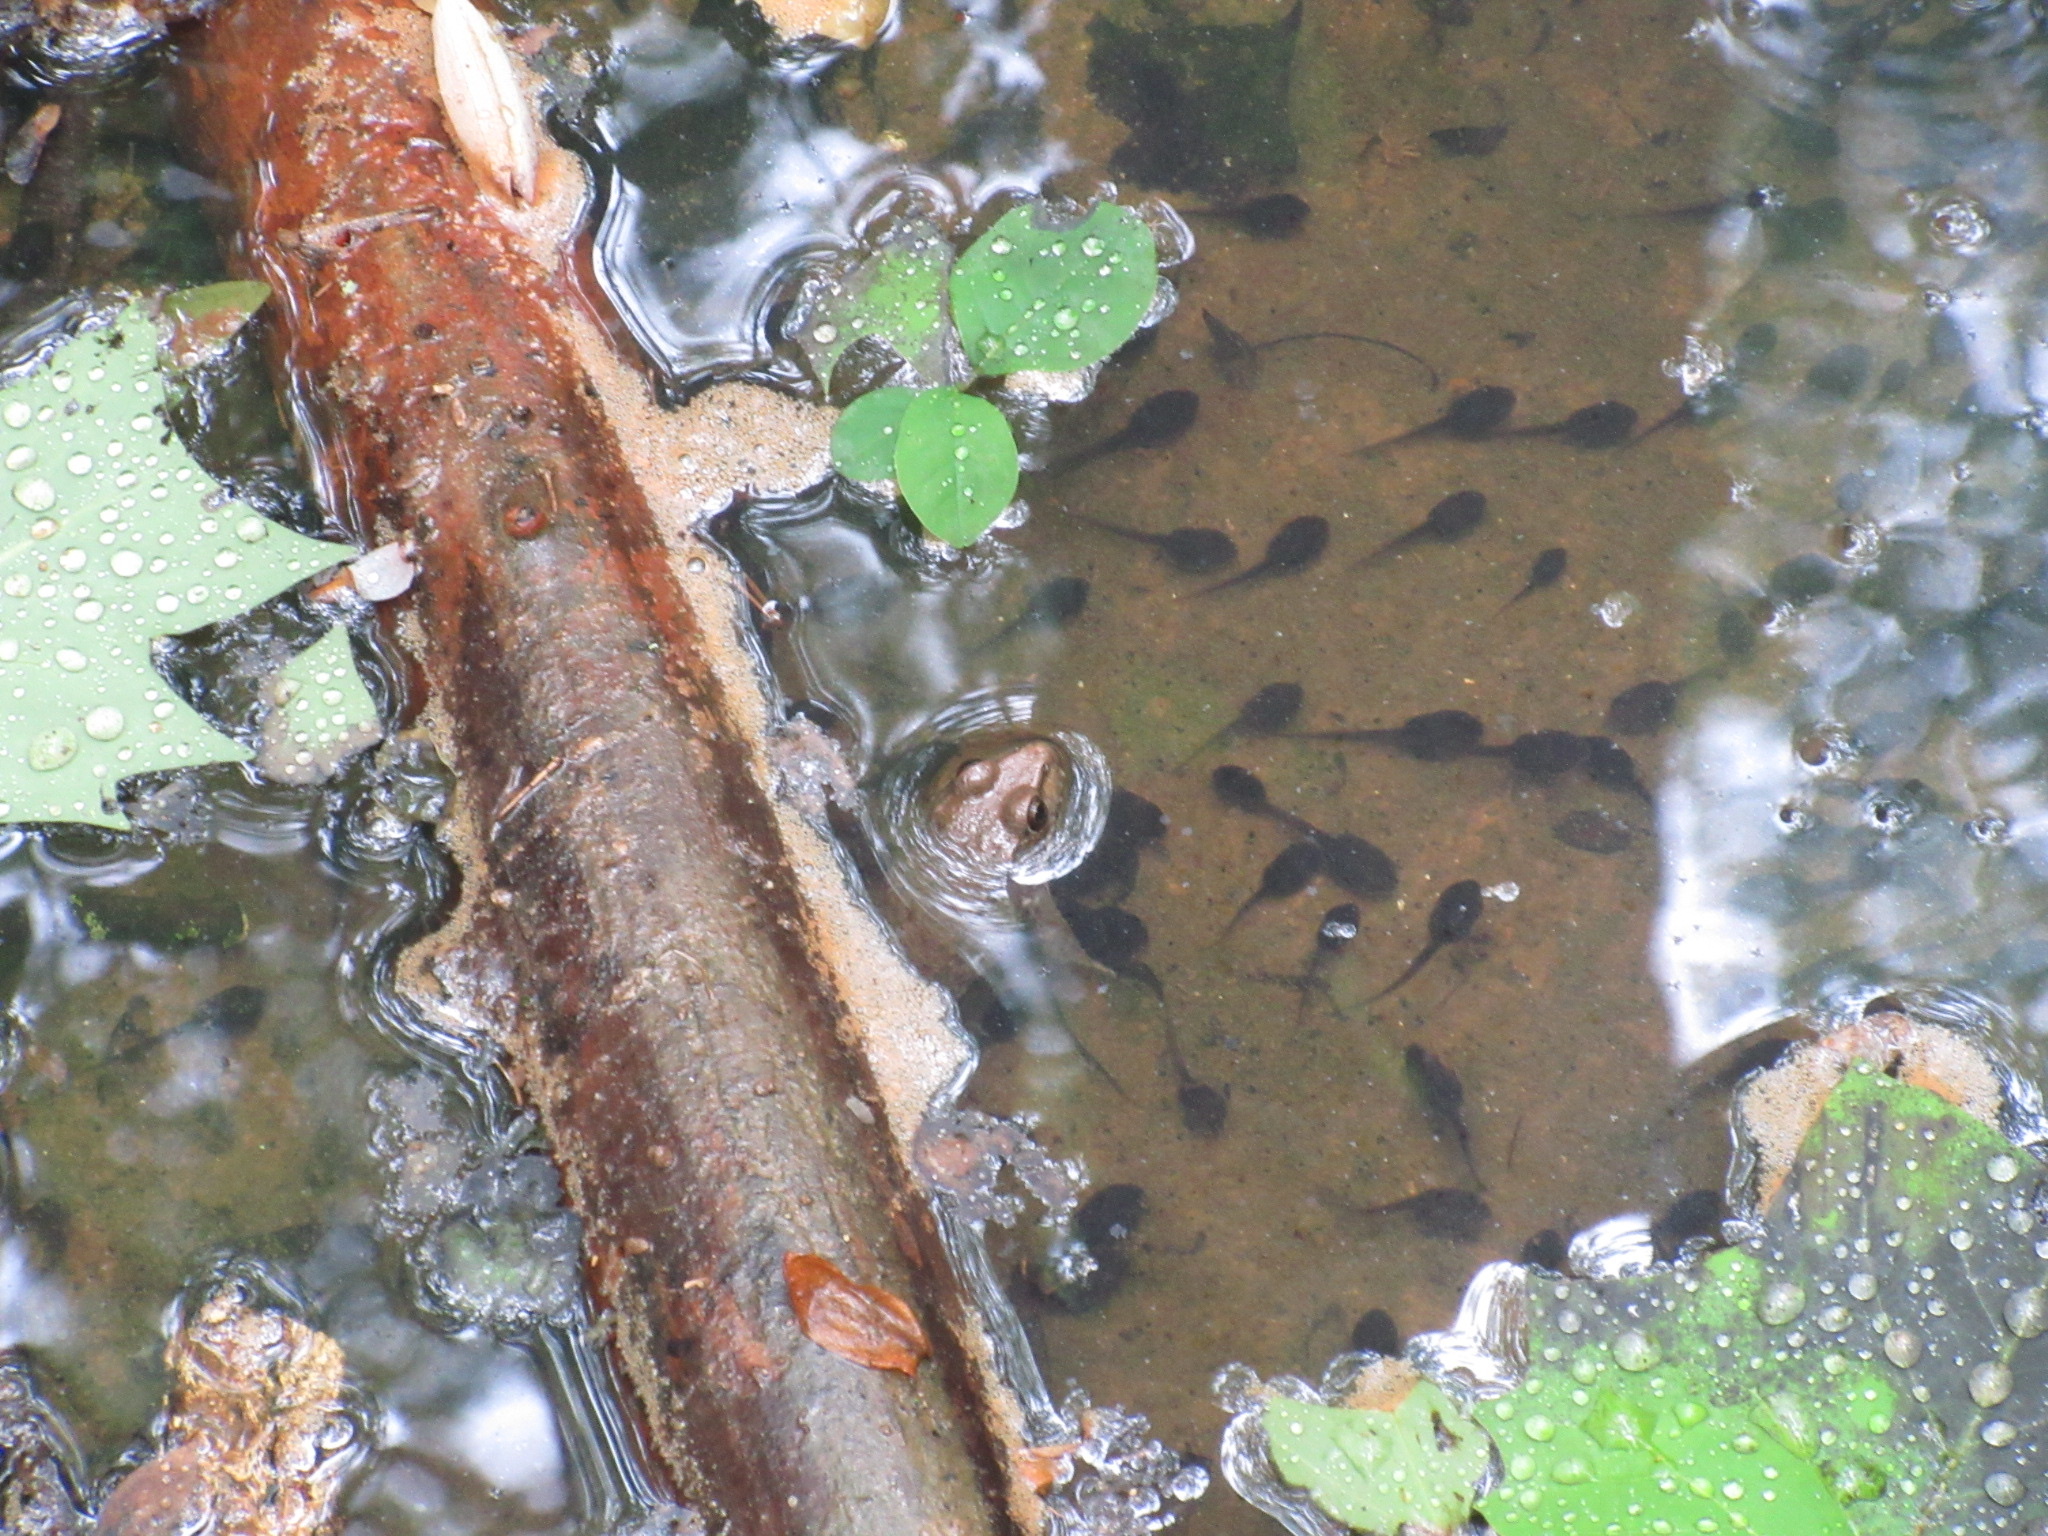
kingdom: Animalia
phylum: Chordata
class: Amphibia
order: Anura
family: Ranidae
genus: Lithobates
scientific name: Lithobates clamitans
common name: Green frog
